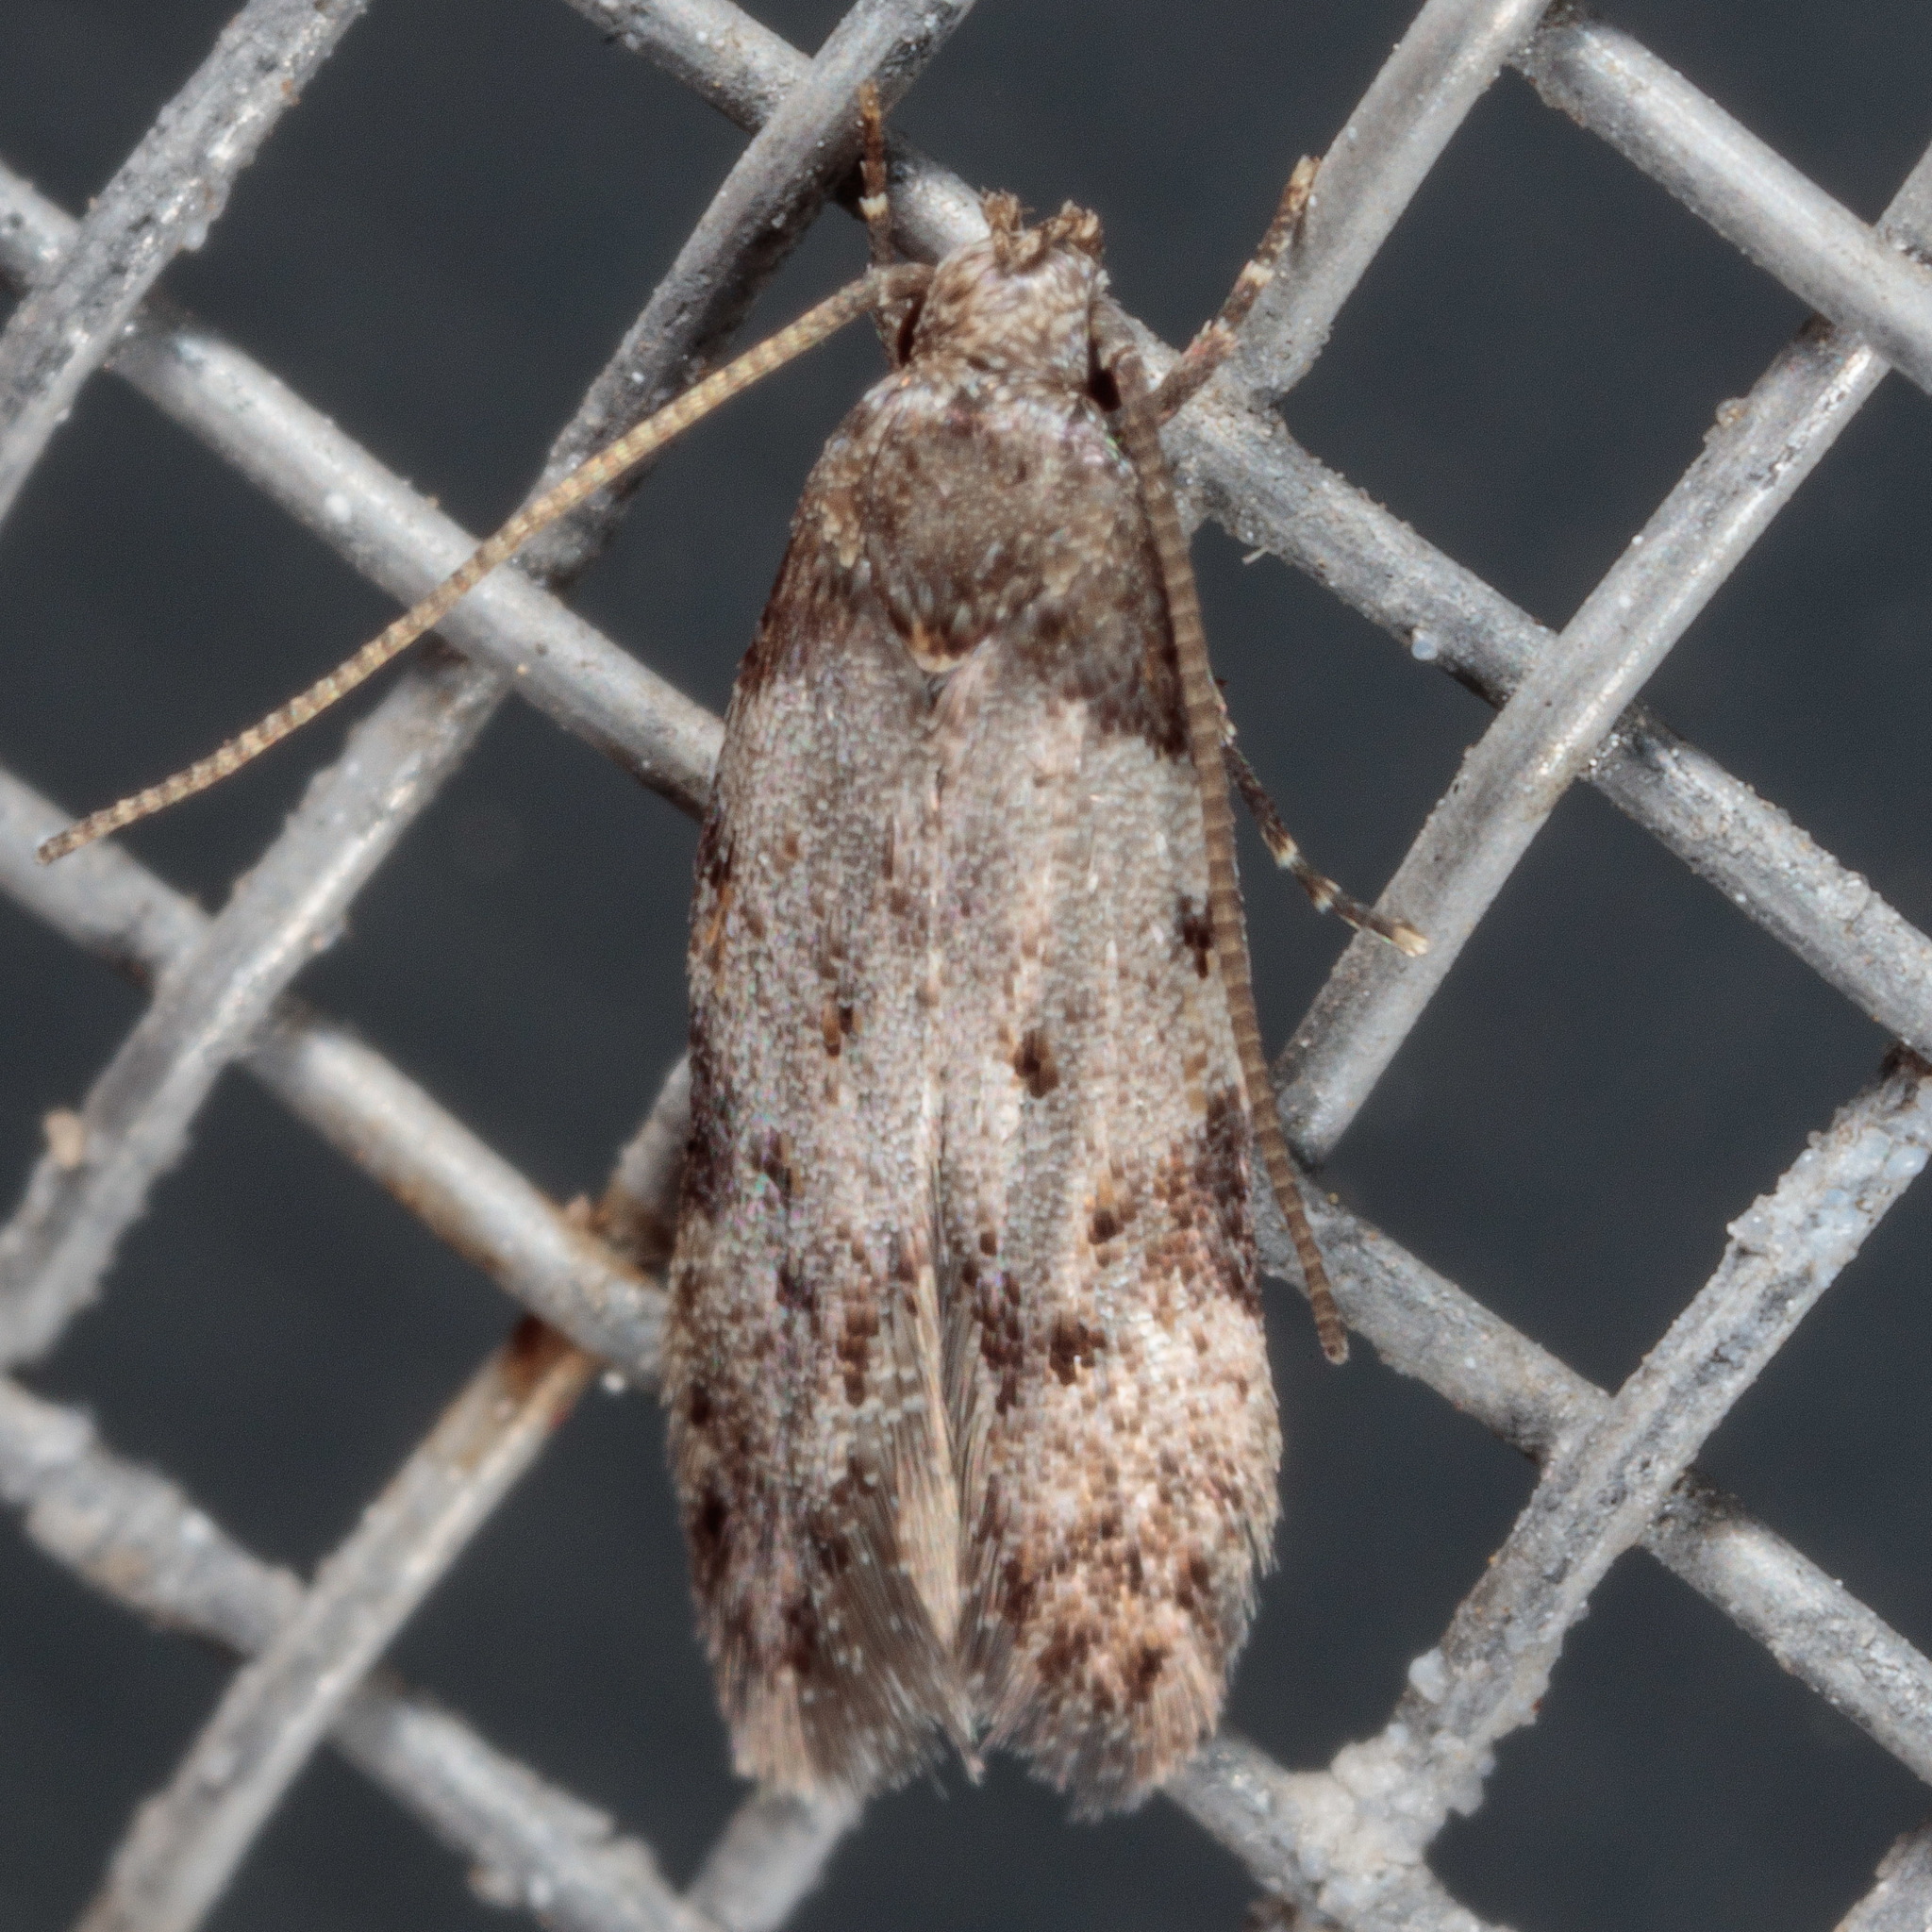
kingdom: Animalia
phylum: Arthropoda
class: Insecta
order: Lepidoptera
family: Autostichidae
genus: Taygete
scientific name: Taygete attributella
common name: Triangle-marked twirler moth
